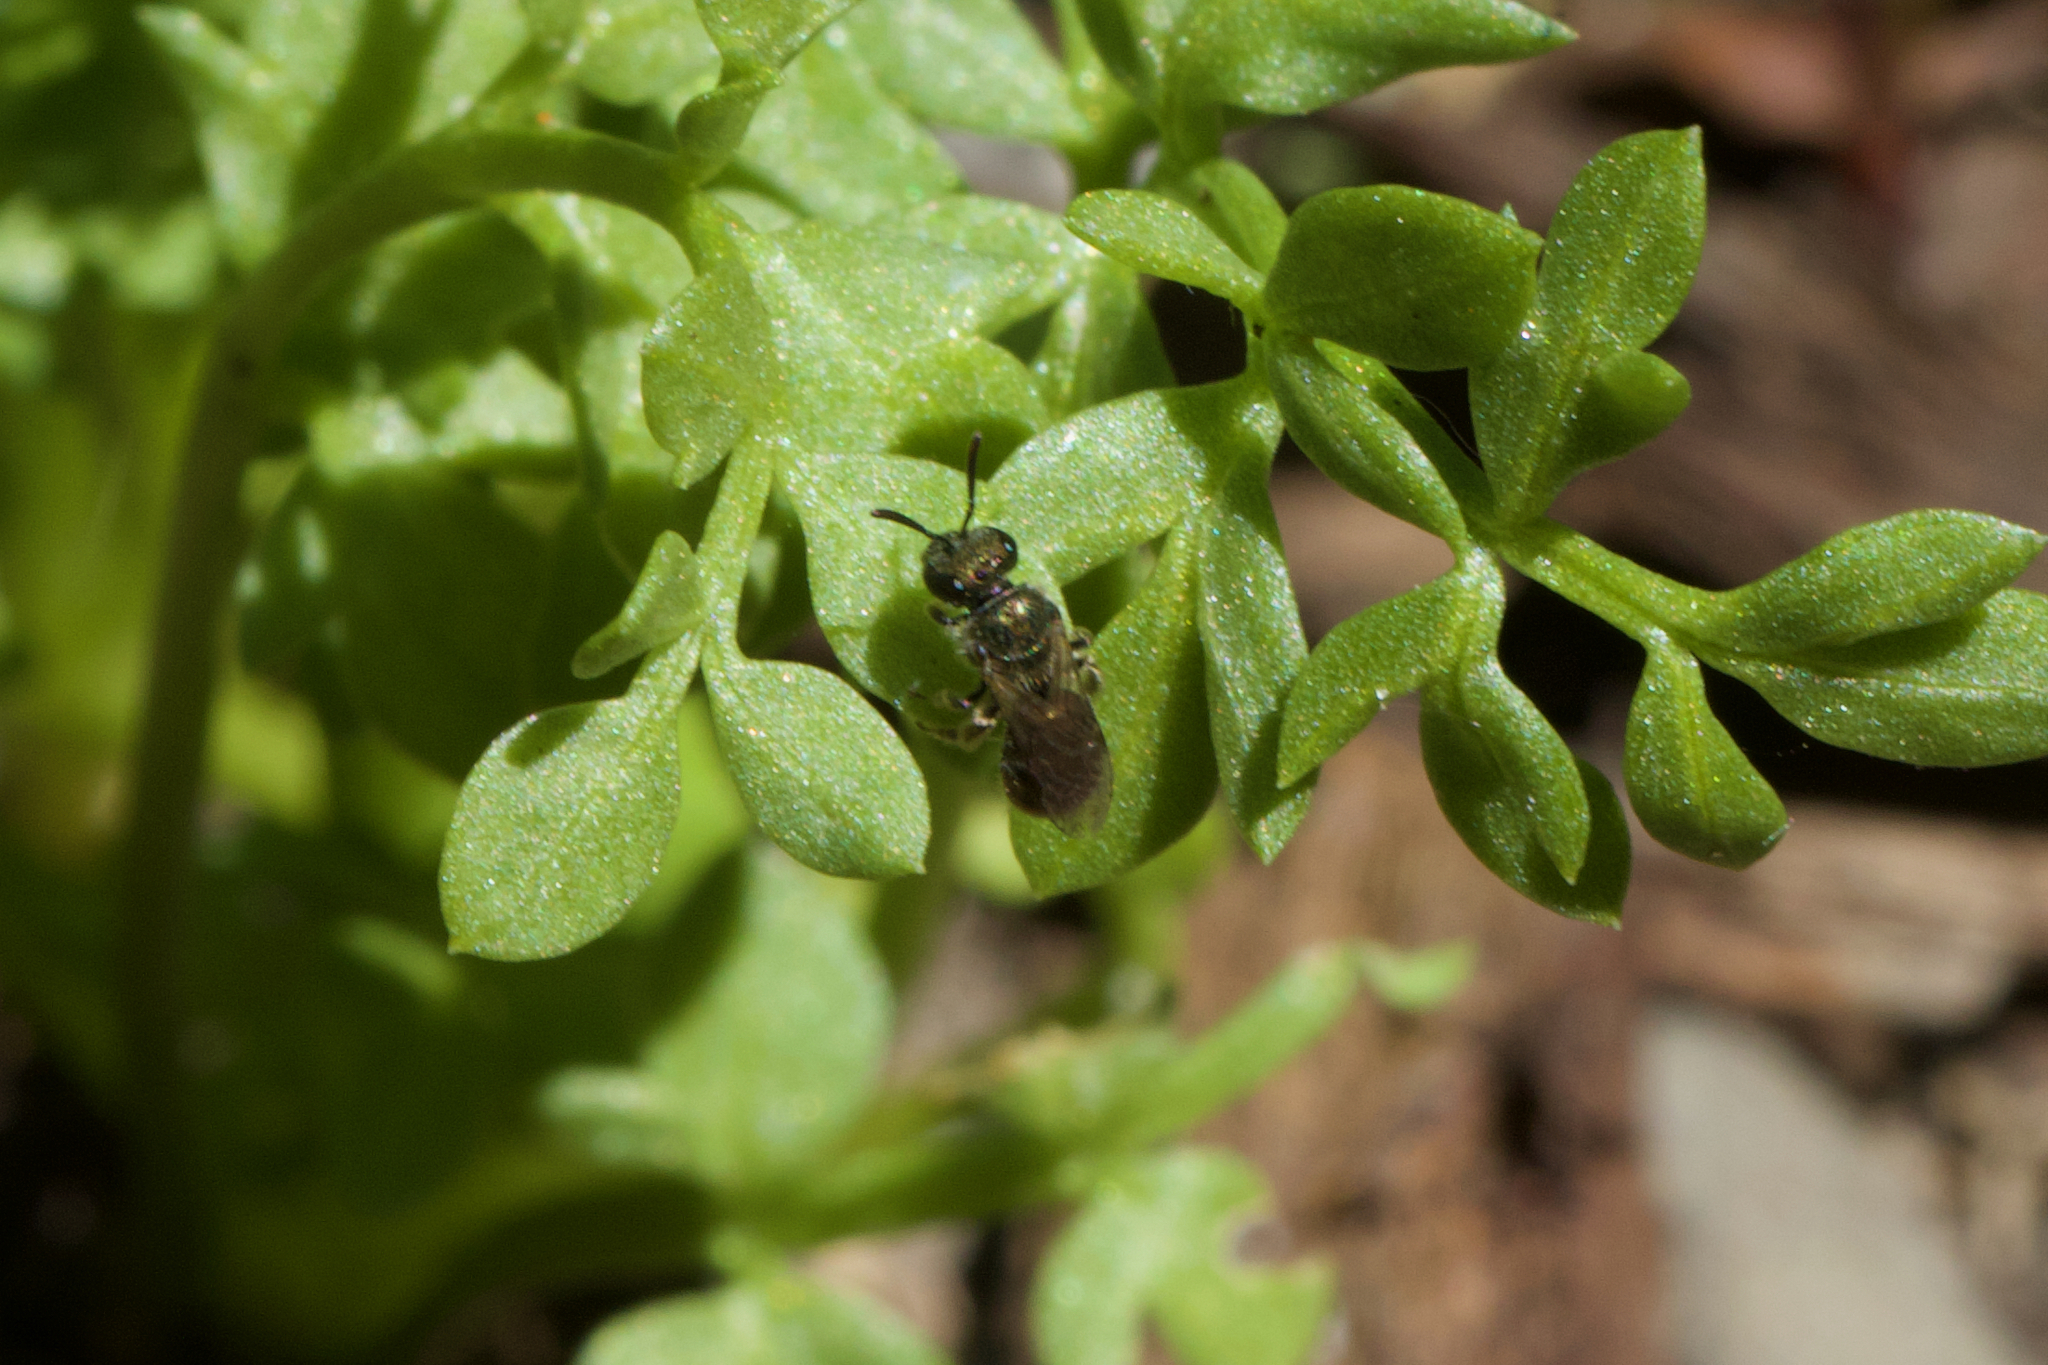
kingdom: Animalia
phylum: Arthropoda
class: Insecta
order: Hymenoptera
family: Halictidae
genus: Dialictus
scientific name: Dialictus
